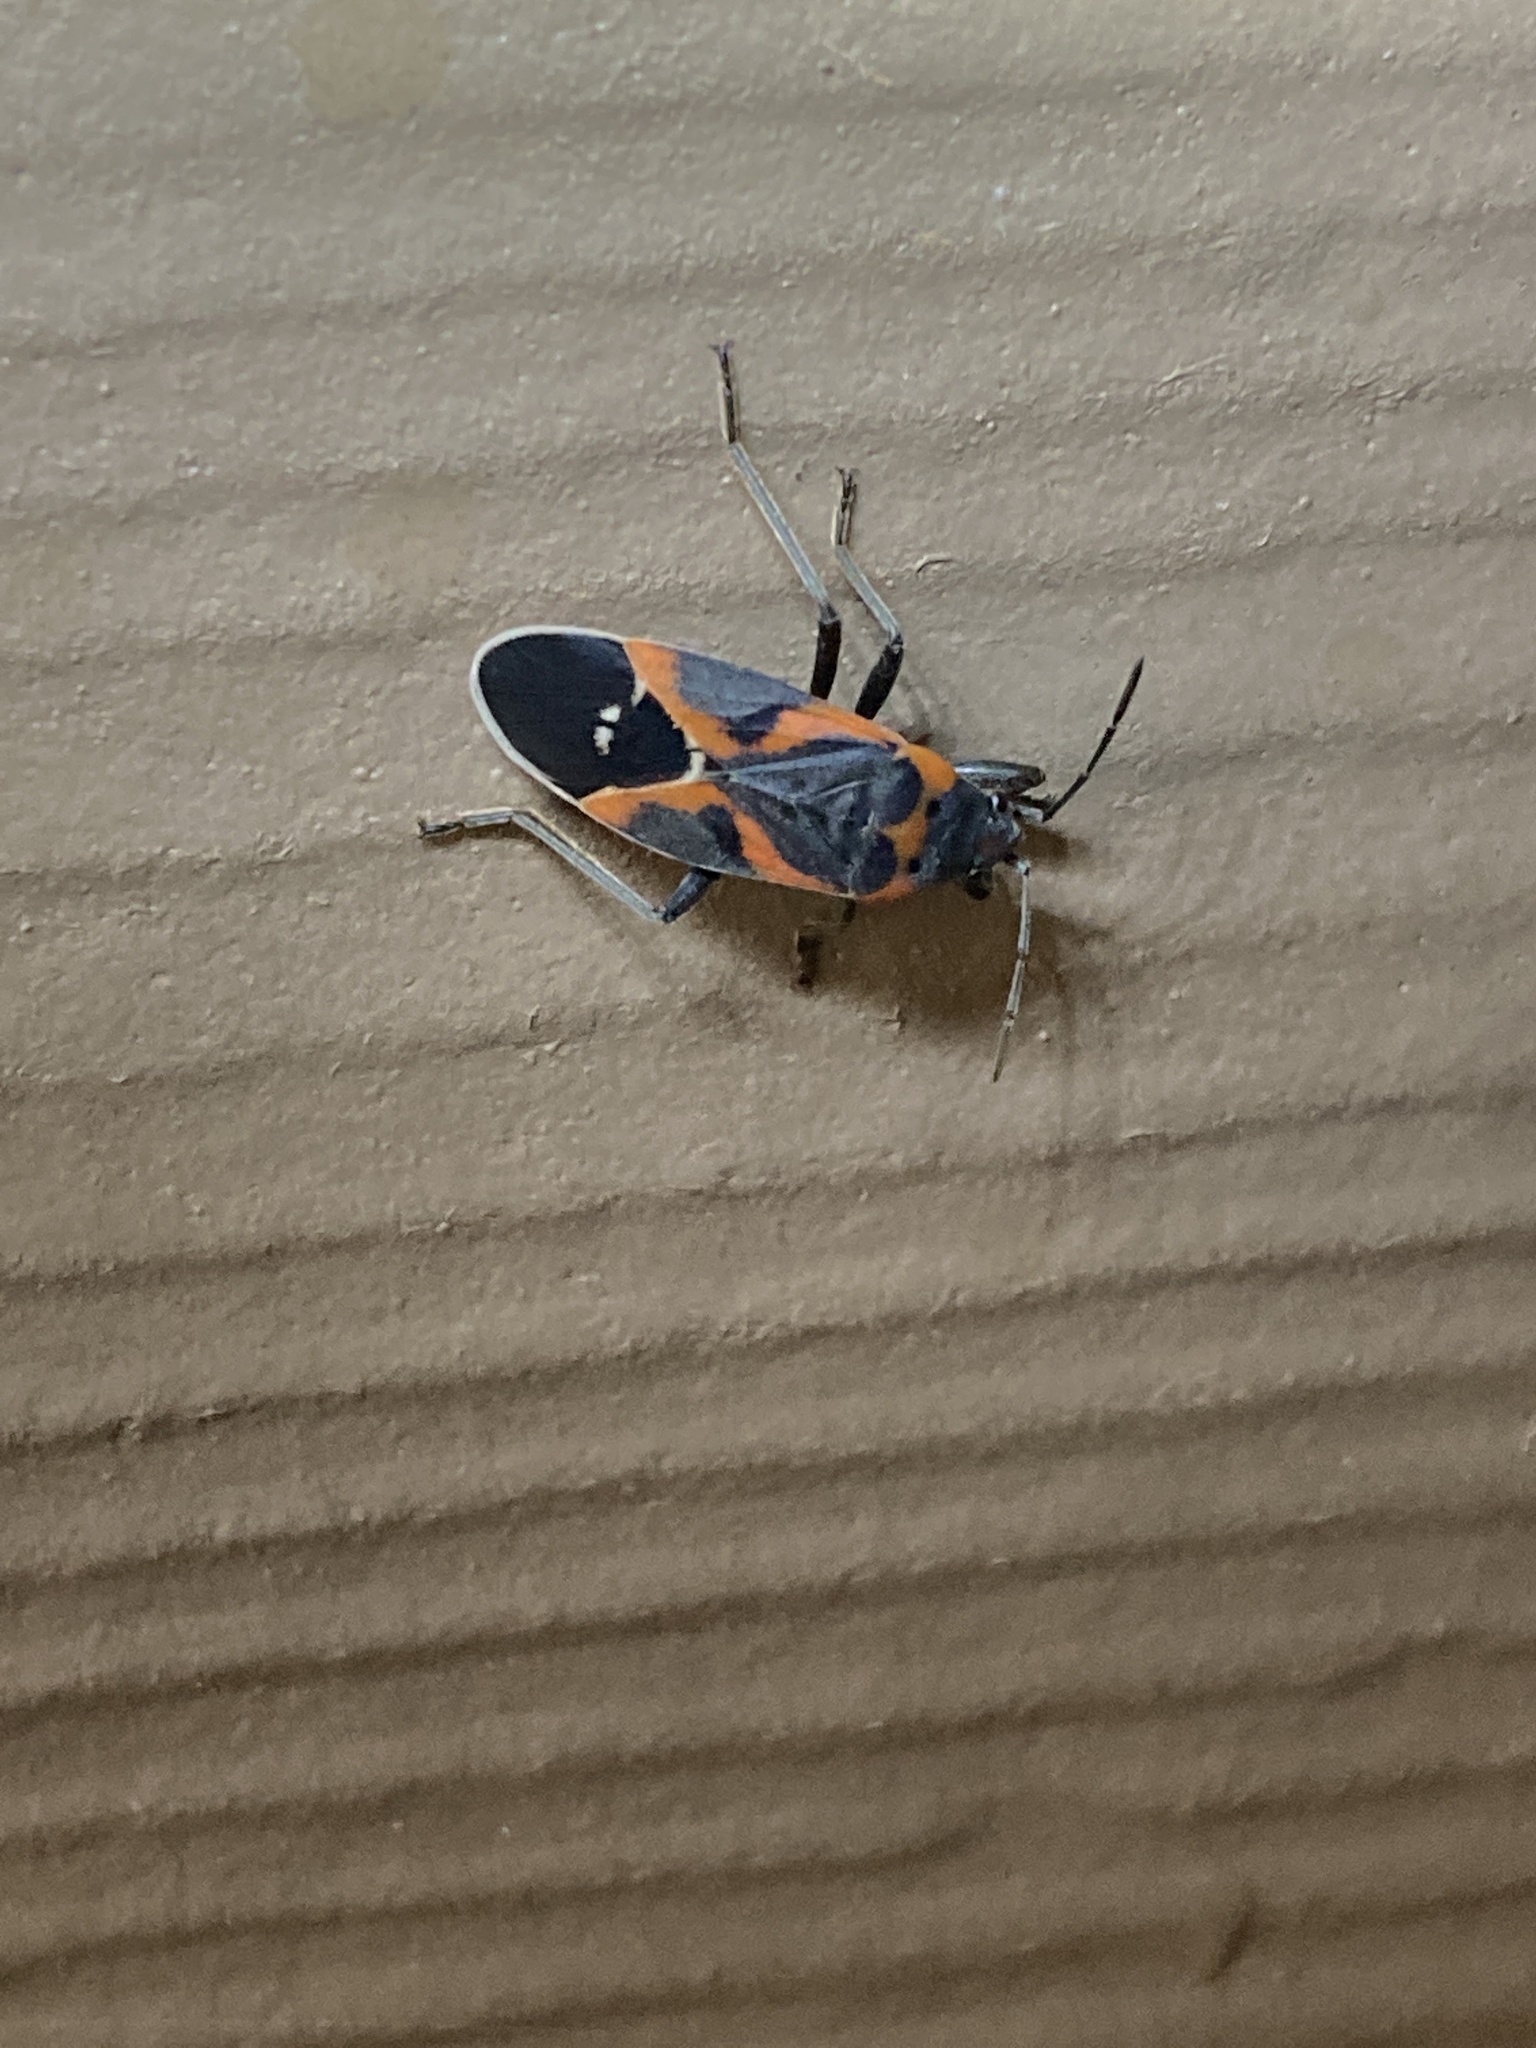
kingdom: Animalia
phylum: Arthropoda
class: Insecta
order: Hemiptera
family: Lygaeidae
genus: Lygaeus
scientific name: Lygaeus kalmii
